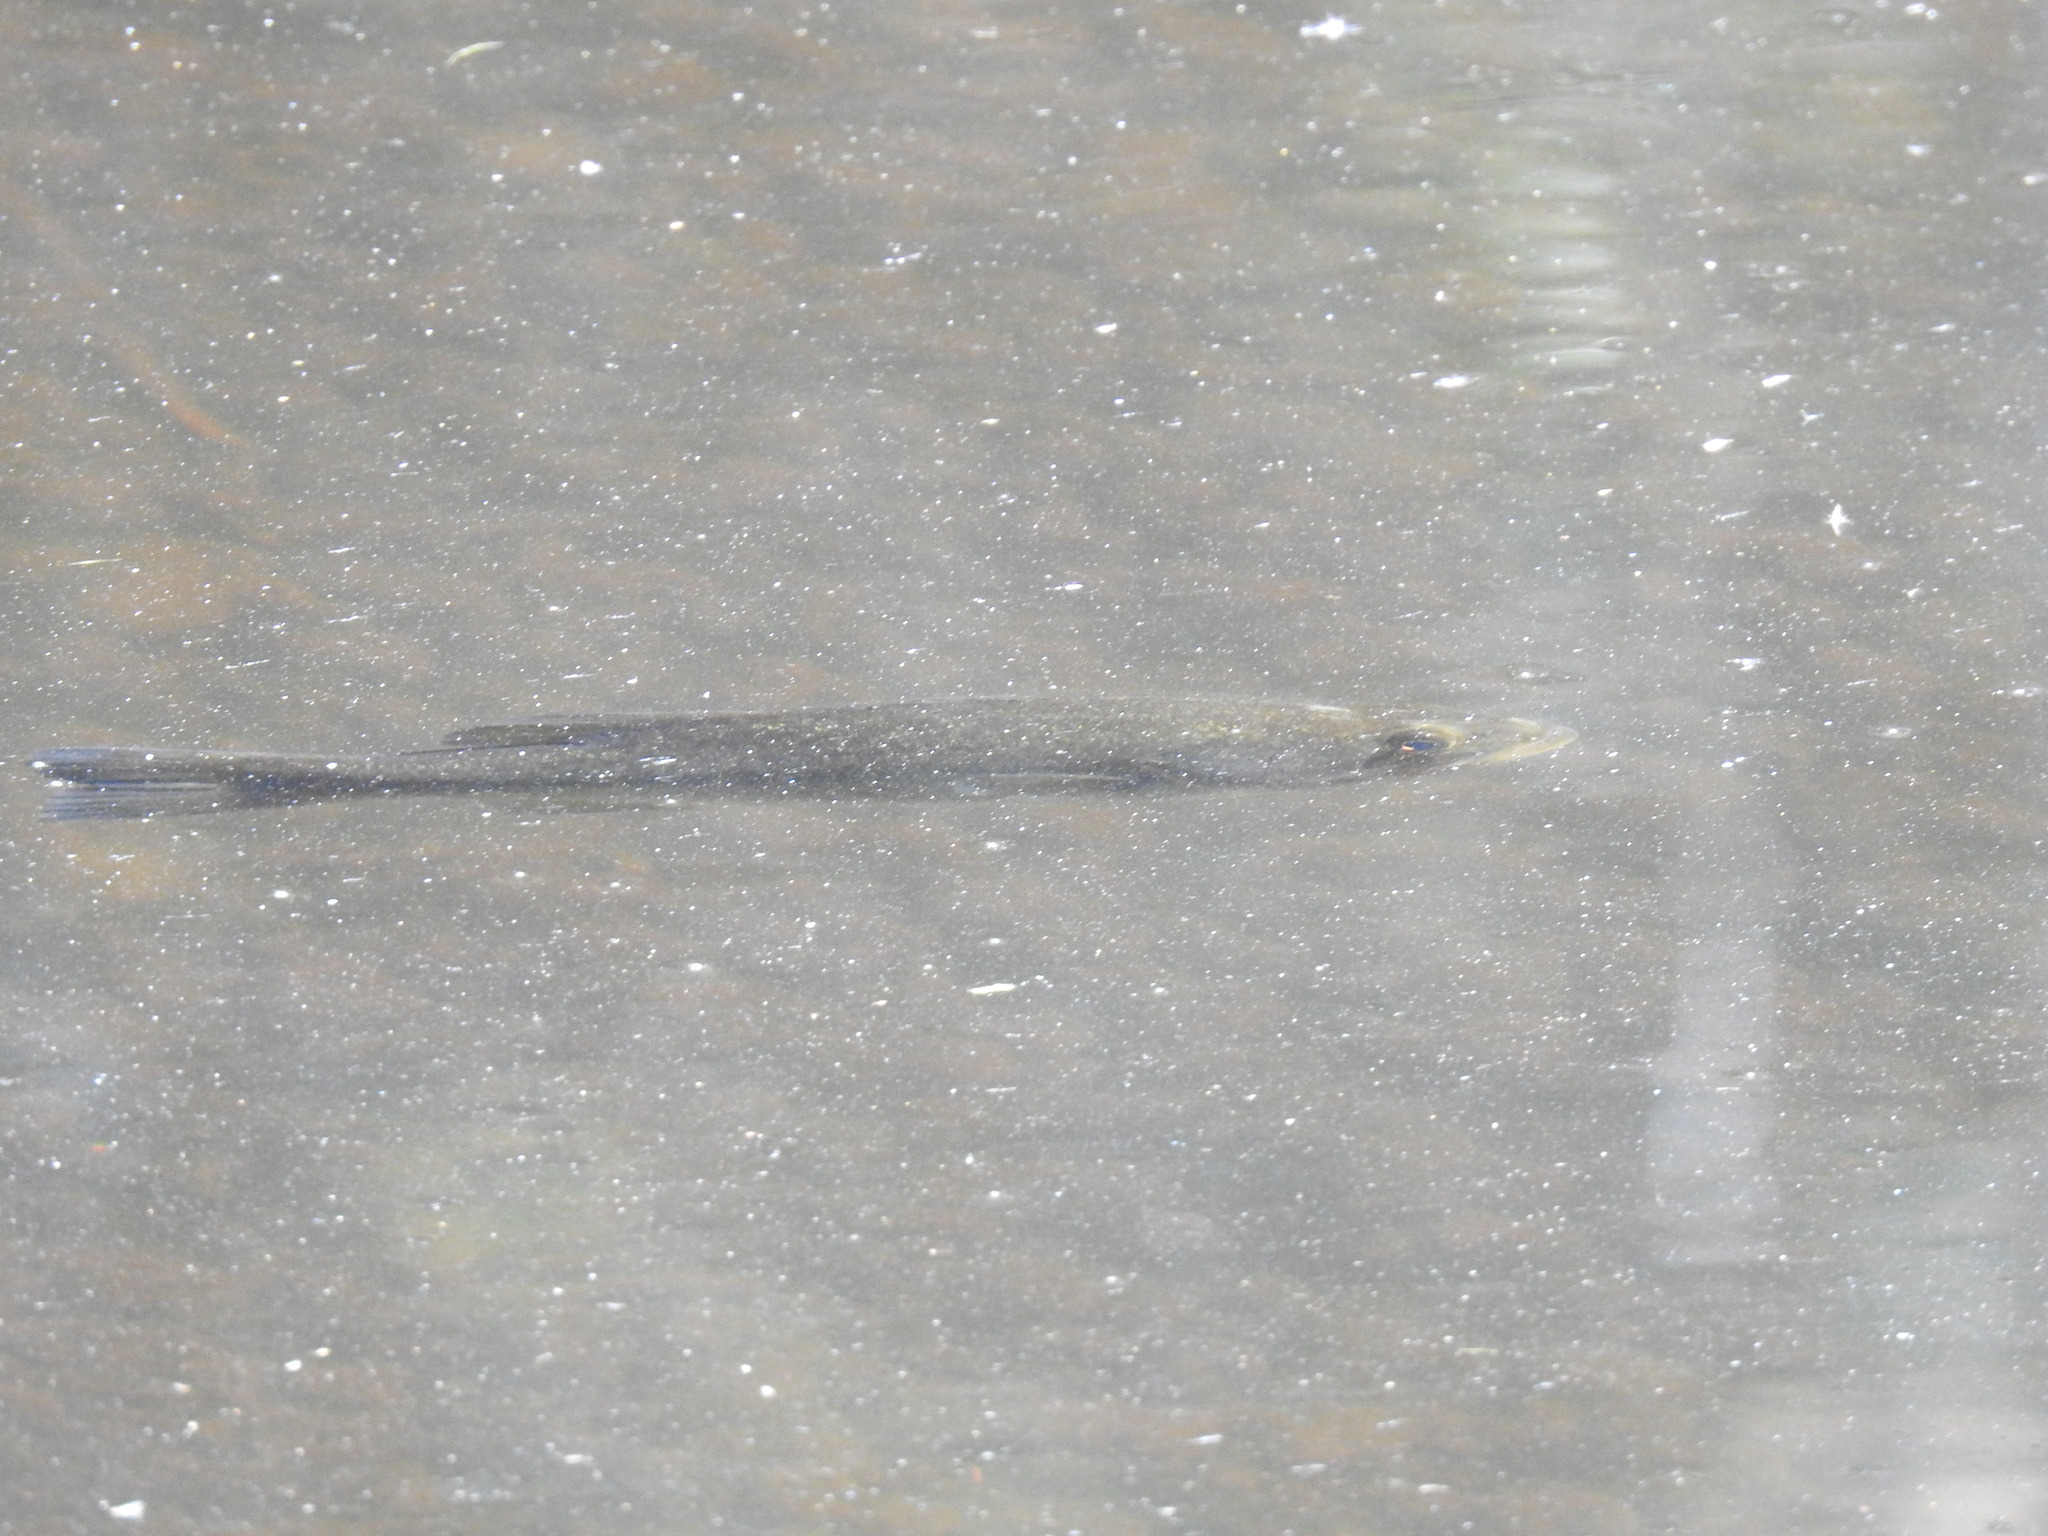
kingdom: Animalia
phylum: Chordata
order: Perciformes
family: Centrarchidae
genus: Micropterus
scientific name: Micropterus salmoides
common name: Largemouth bass
